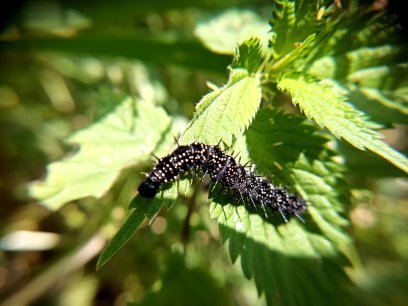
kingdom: Animalia
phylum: Arthropoda
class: Insecta
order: Lepidoptera
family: Nymphalidae
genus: Aglais
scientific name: Aglais io
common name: Peacock
